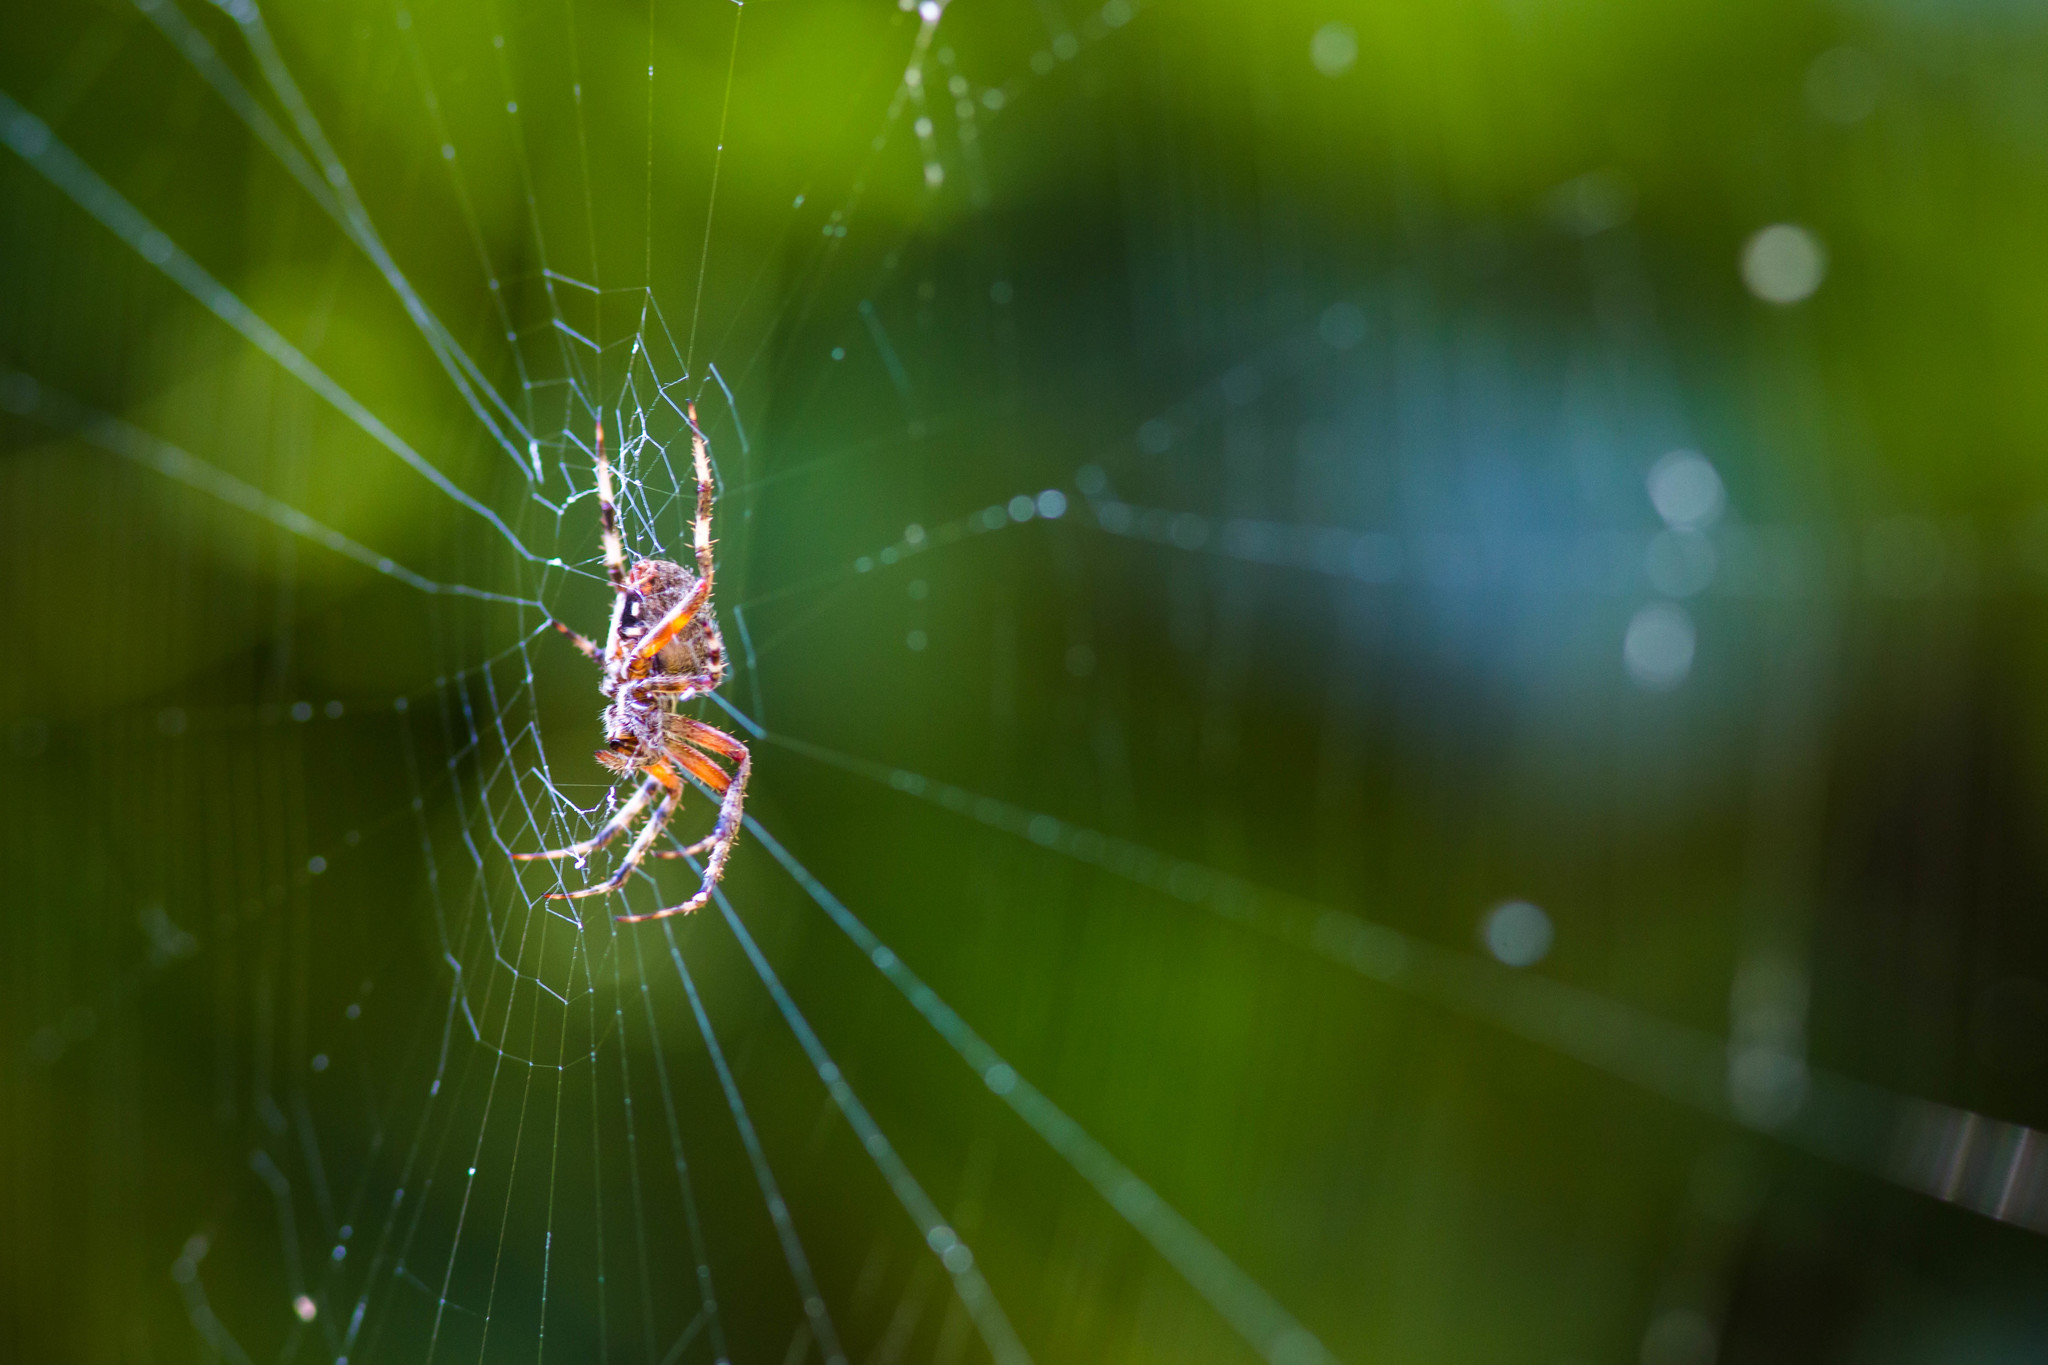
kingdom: Animalia
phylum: Arthropoda
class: Arachnida
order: Araneae
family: Araneidae
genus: Neoscona
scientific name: Neoscona crucifera
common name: Spotted orbweaver
